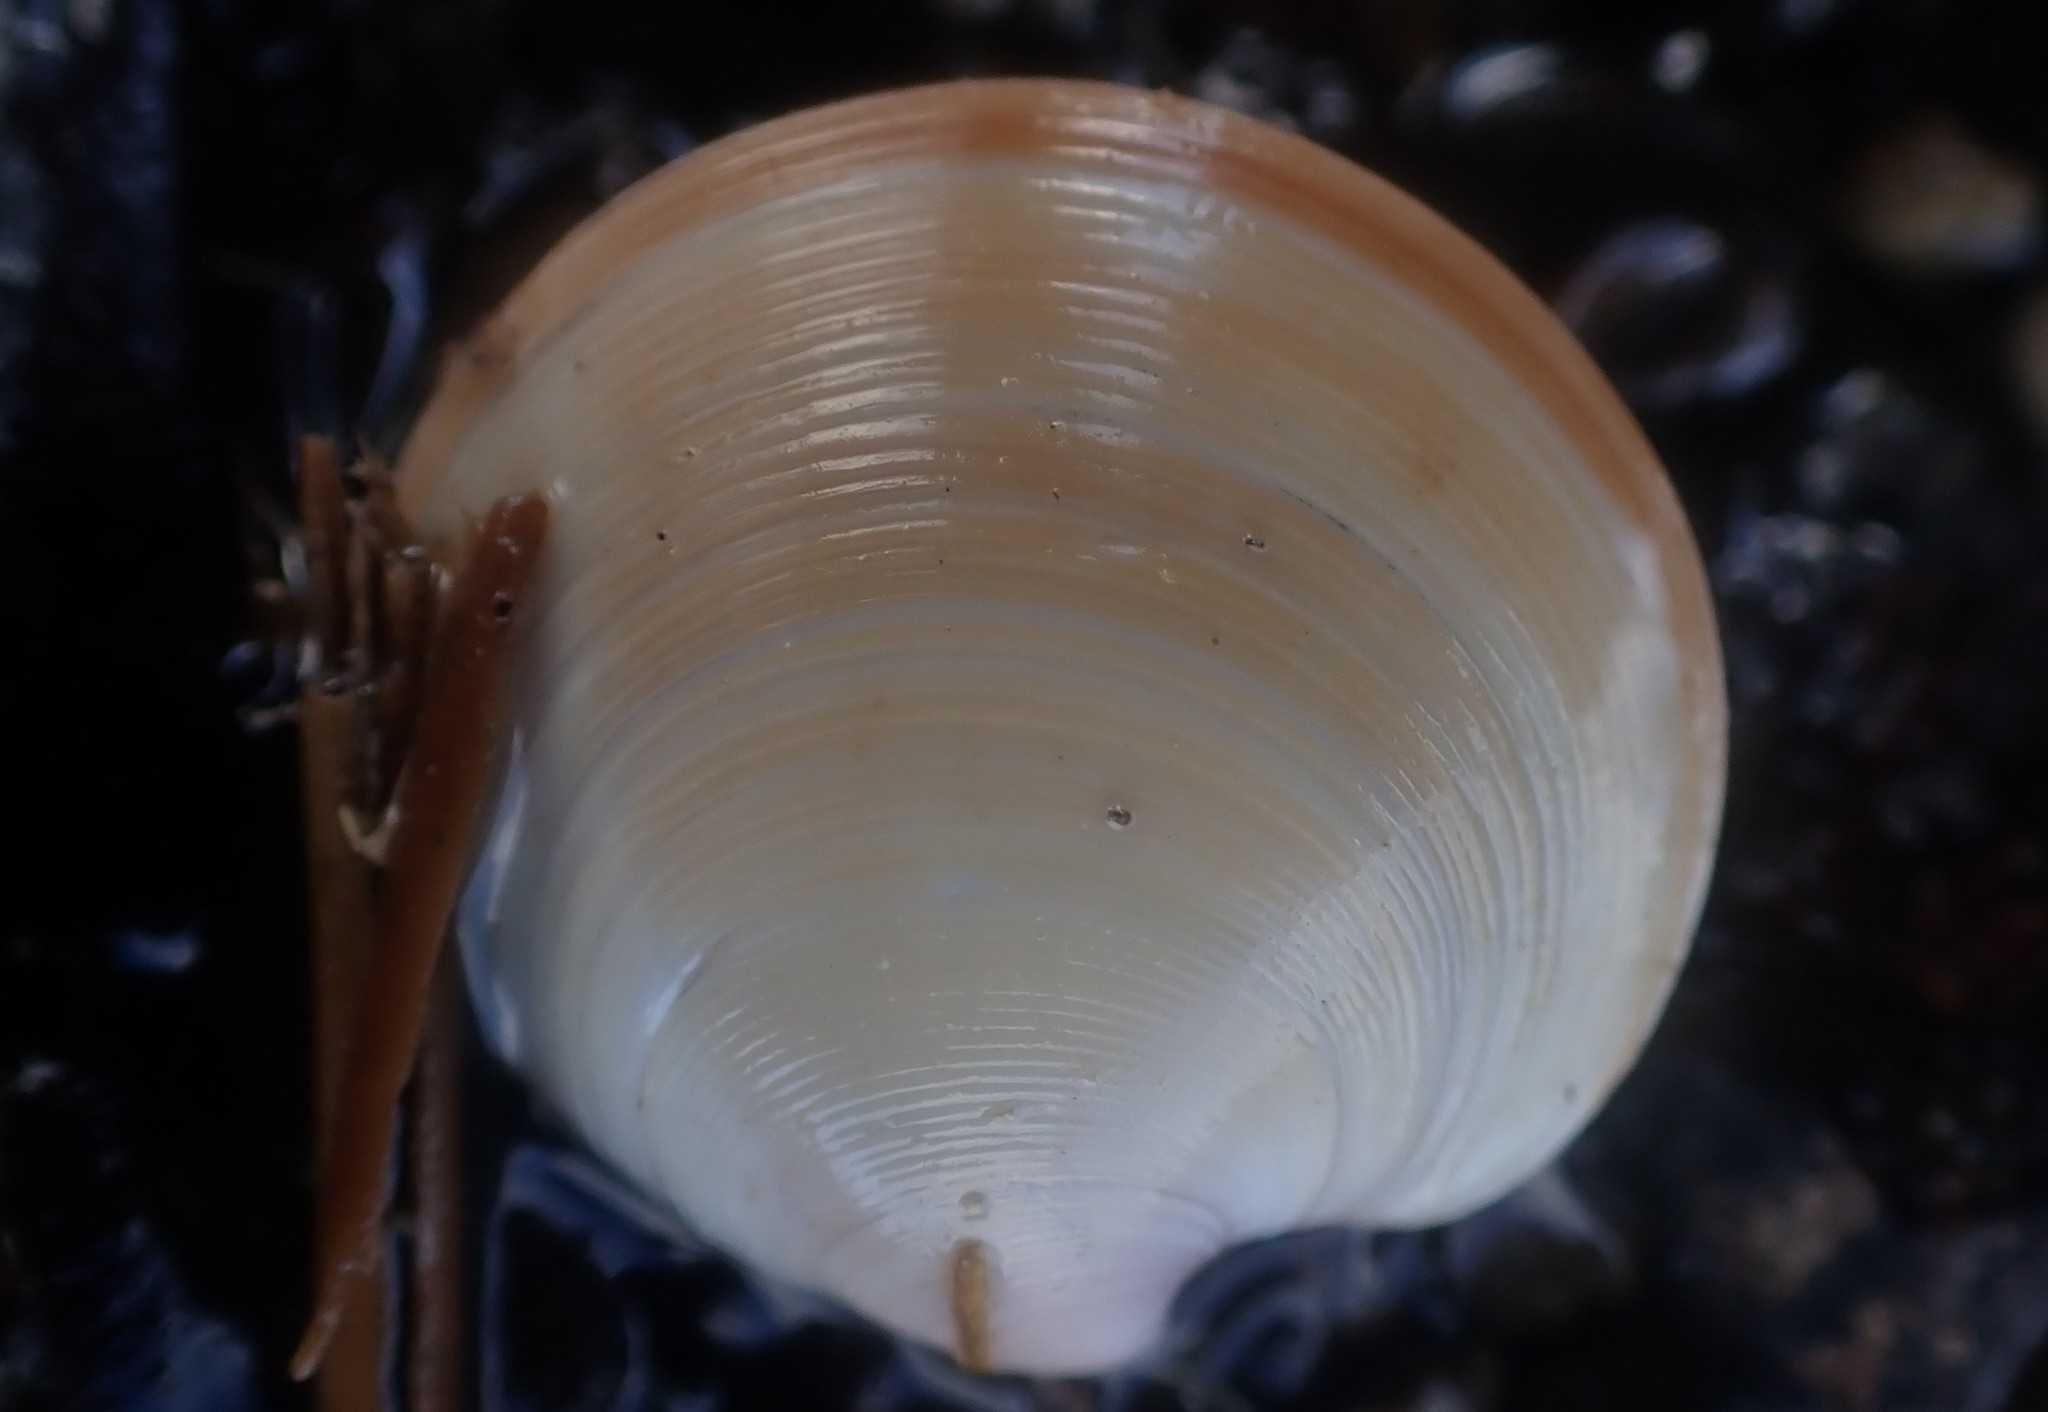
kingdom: Animalia
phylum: Mollusca
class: Bivalvia
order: Venerida
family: Veneridae
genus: Dosinia
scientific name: Dosinia anus
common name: Old-woman dosinia
